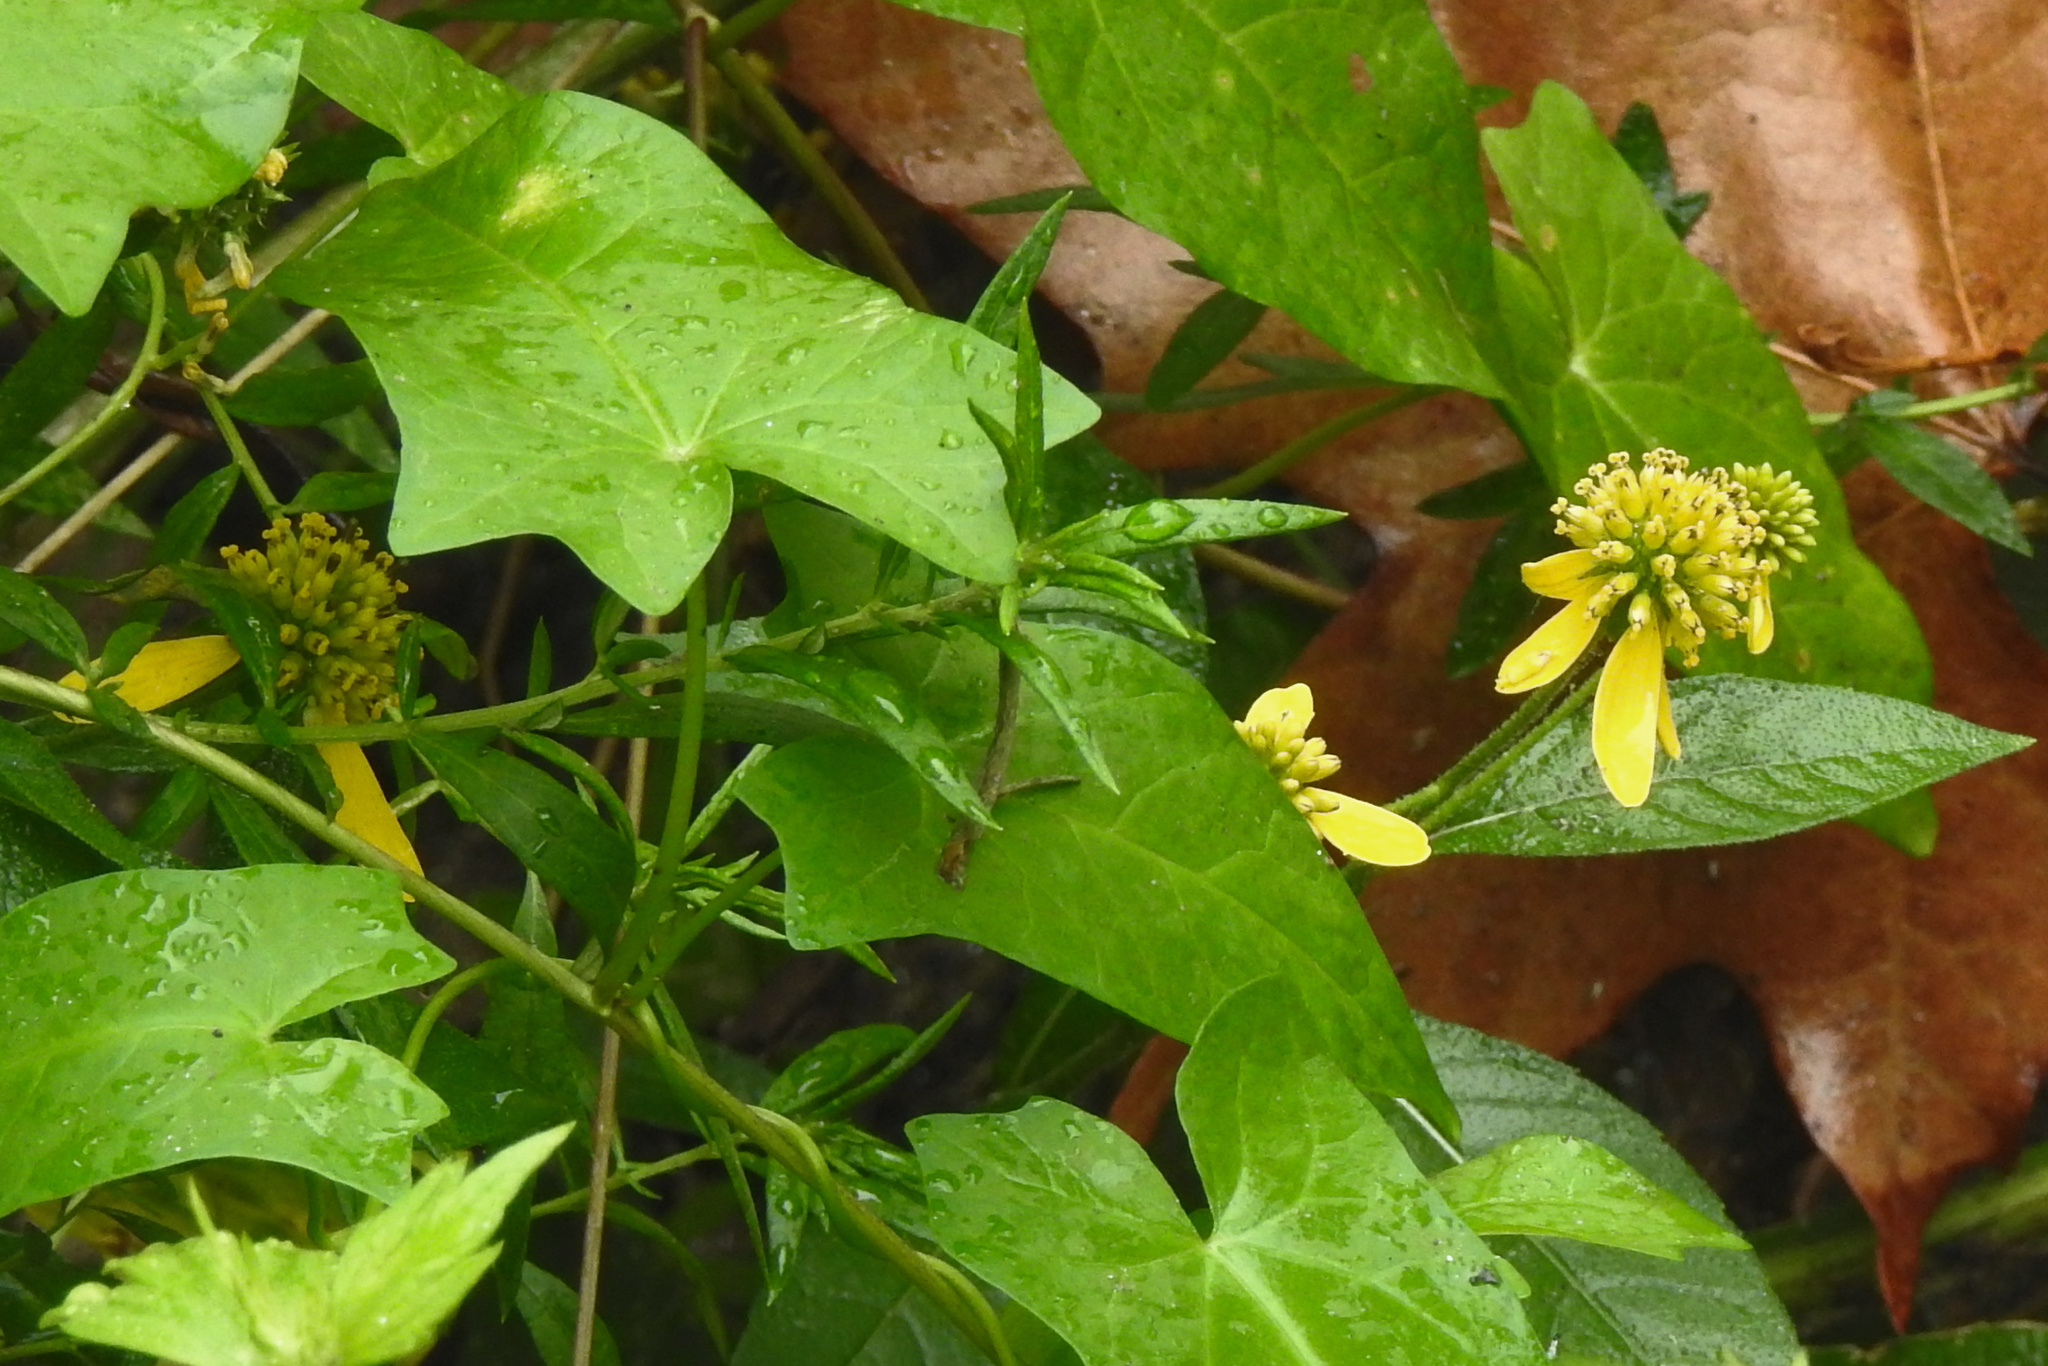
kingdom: Plantae
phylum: Tracheophyta
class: Magnoliopsida
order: Asterales
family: Asteraceae
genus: Verbesina
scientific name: Verbesina alternifolia
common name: Wingstem
